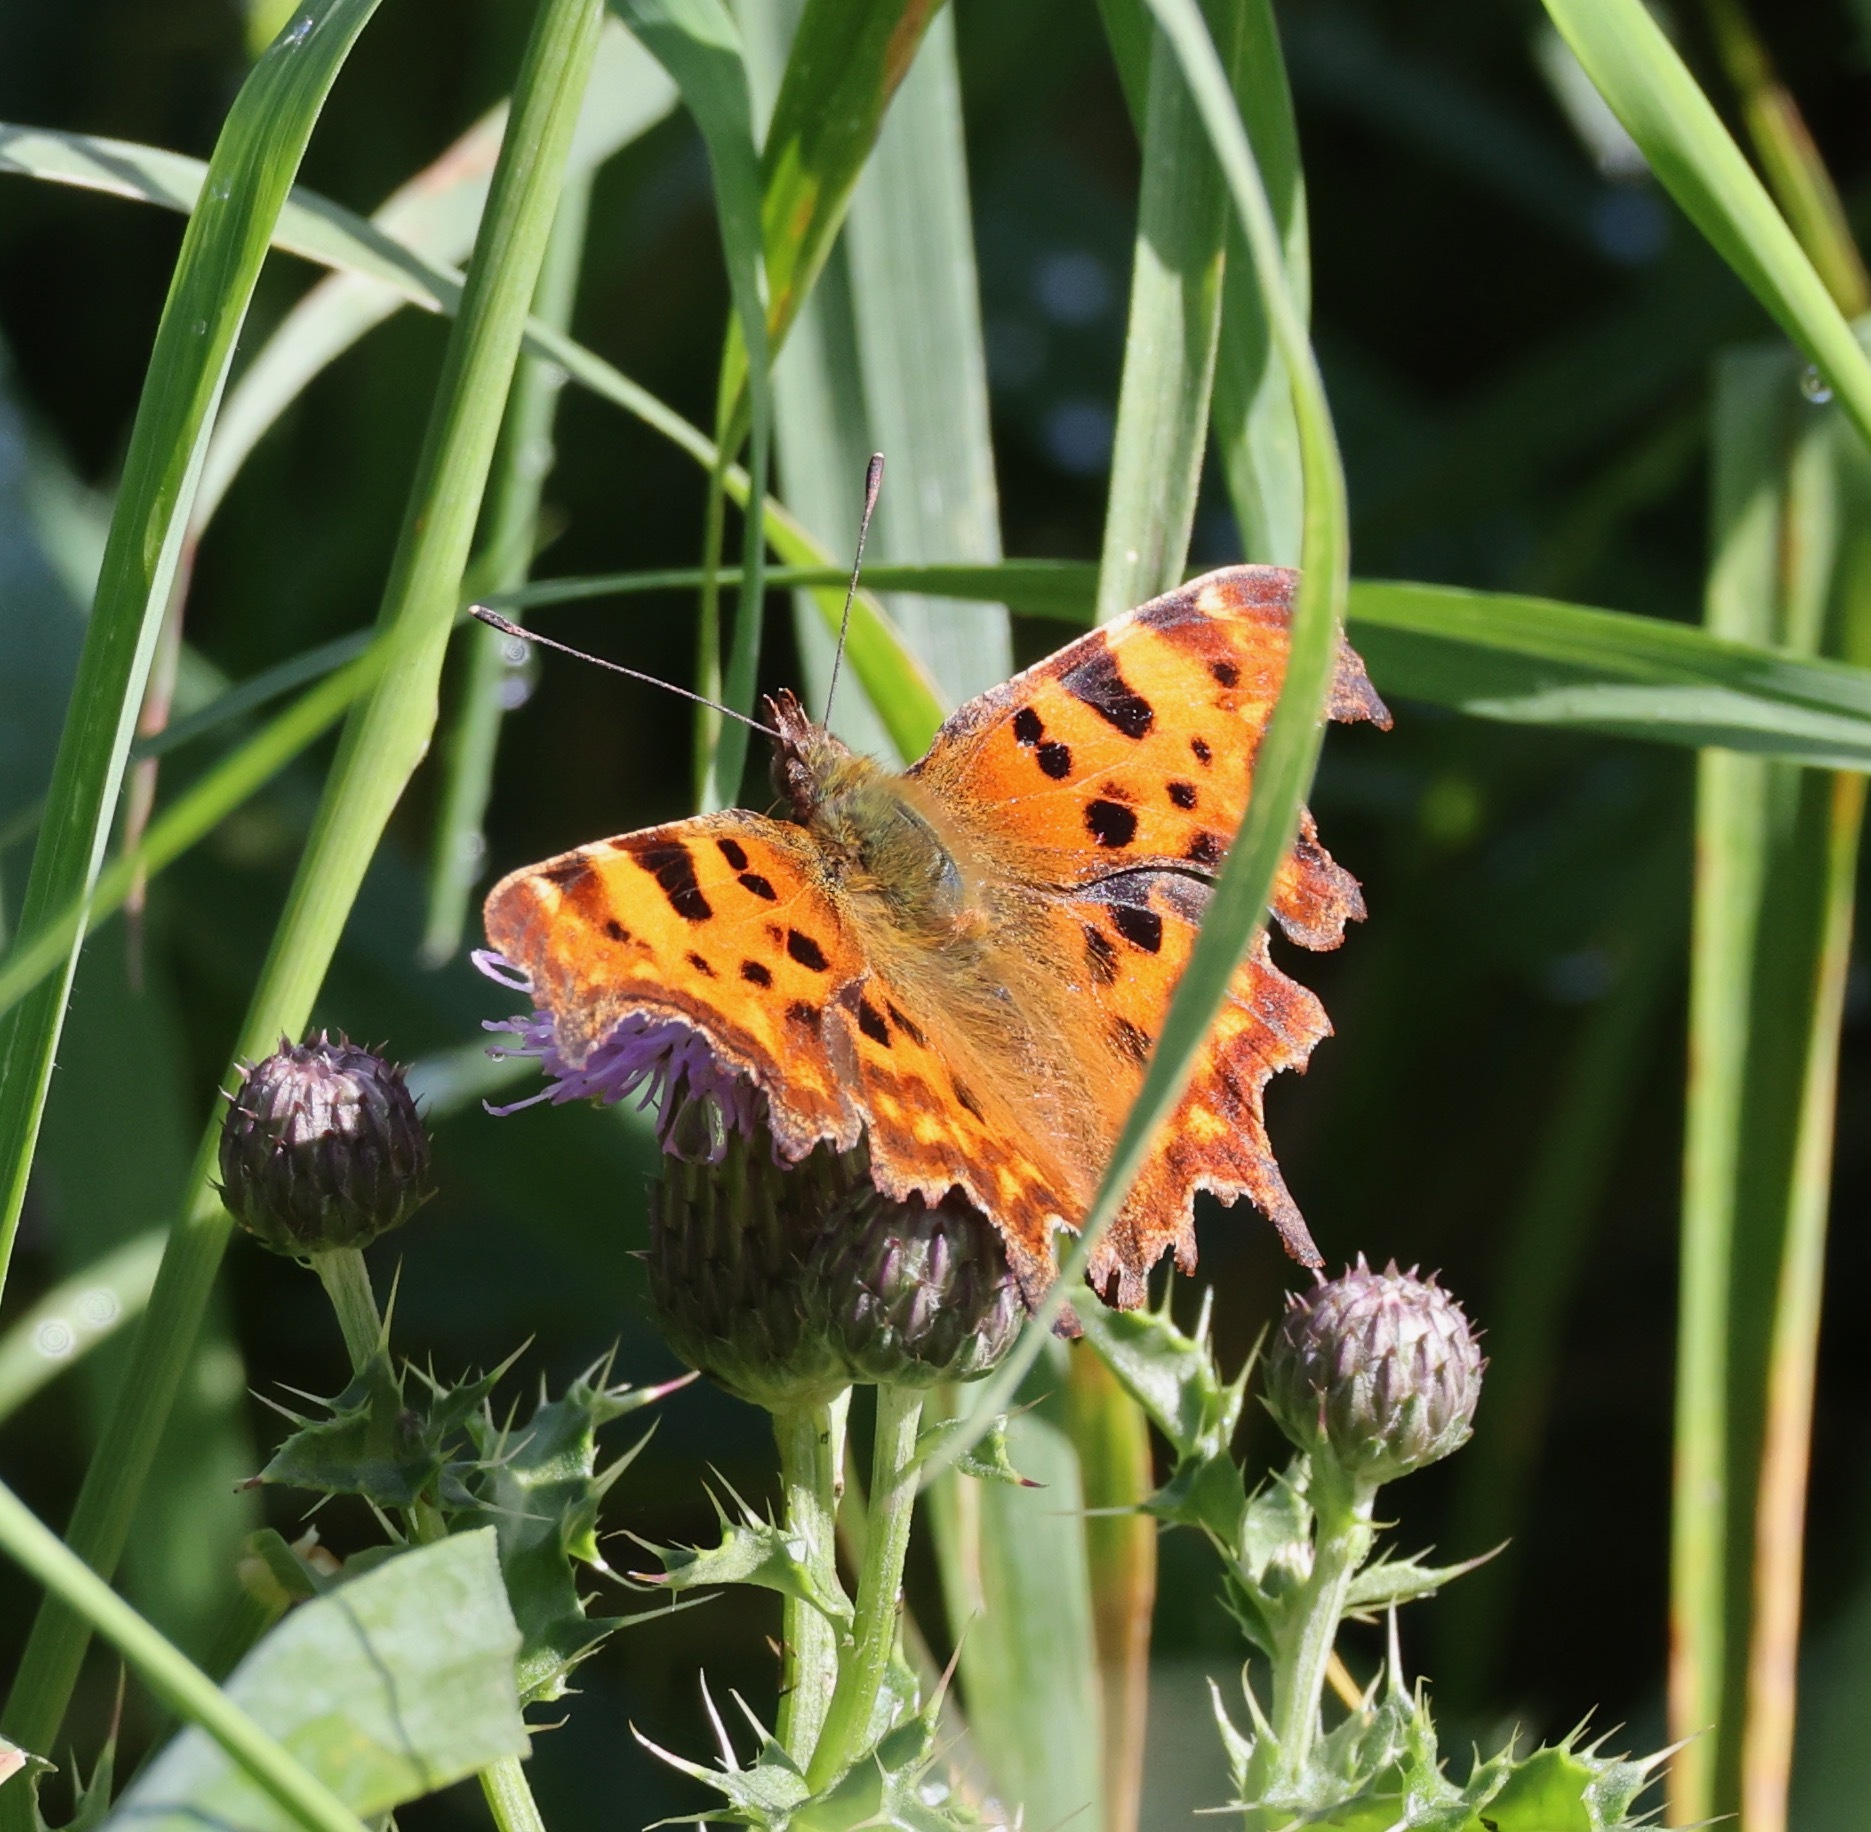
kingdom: Animalia
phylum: Arthropoda
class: Insecta
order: Lepidoptera
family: Nymphalidae
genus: Polygonia
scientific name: Polygonia c-album
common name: Comma
